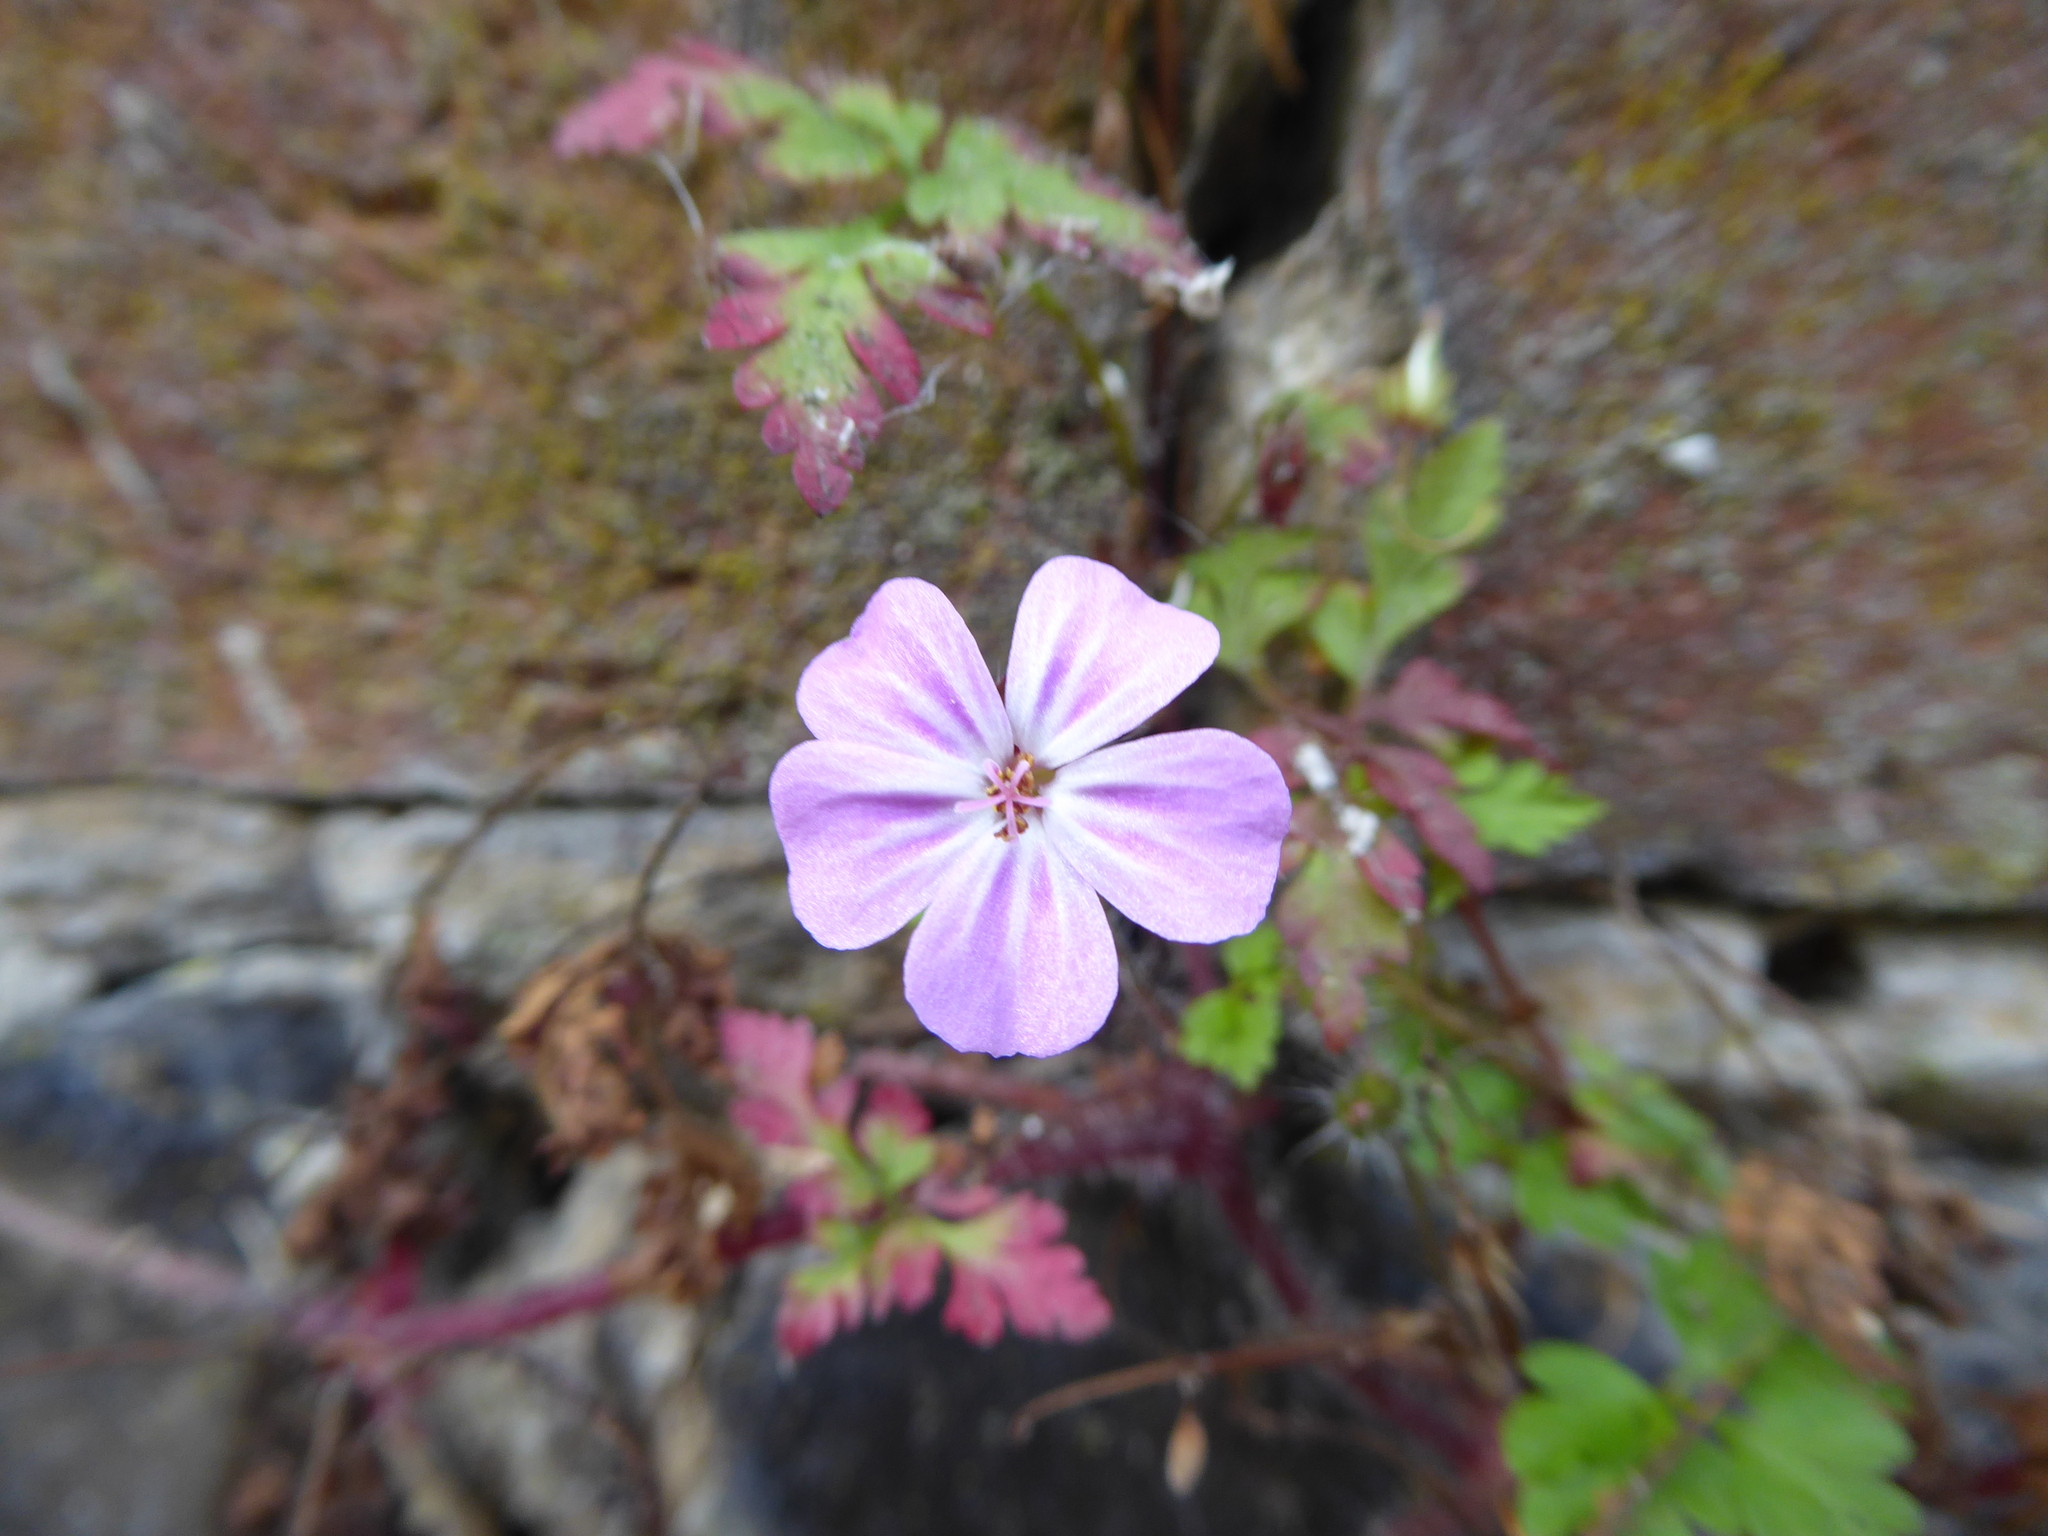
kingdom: Plantae
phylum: Tracheophyta
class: Magnoliopsida
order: Geraniales
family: Geraniaceae
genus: Geranium
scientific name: Geranium robertianum
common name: Herb-robert
